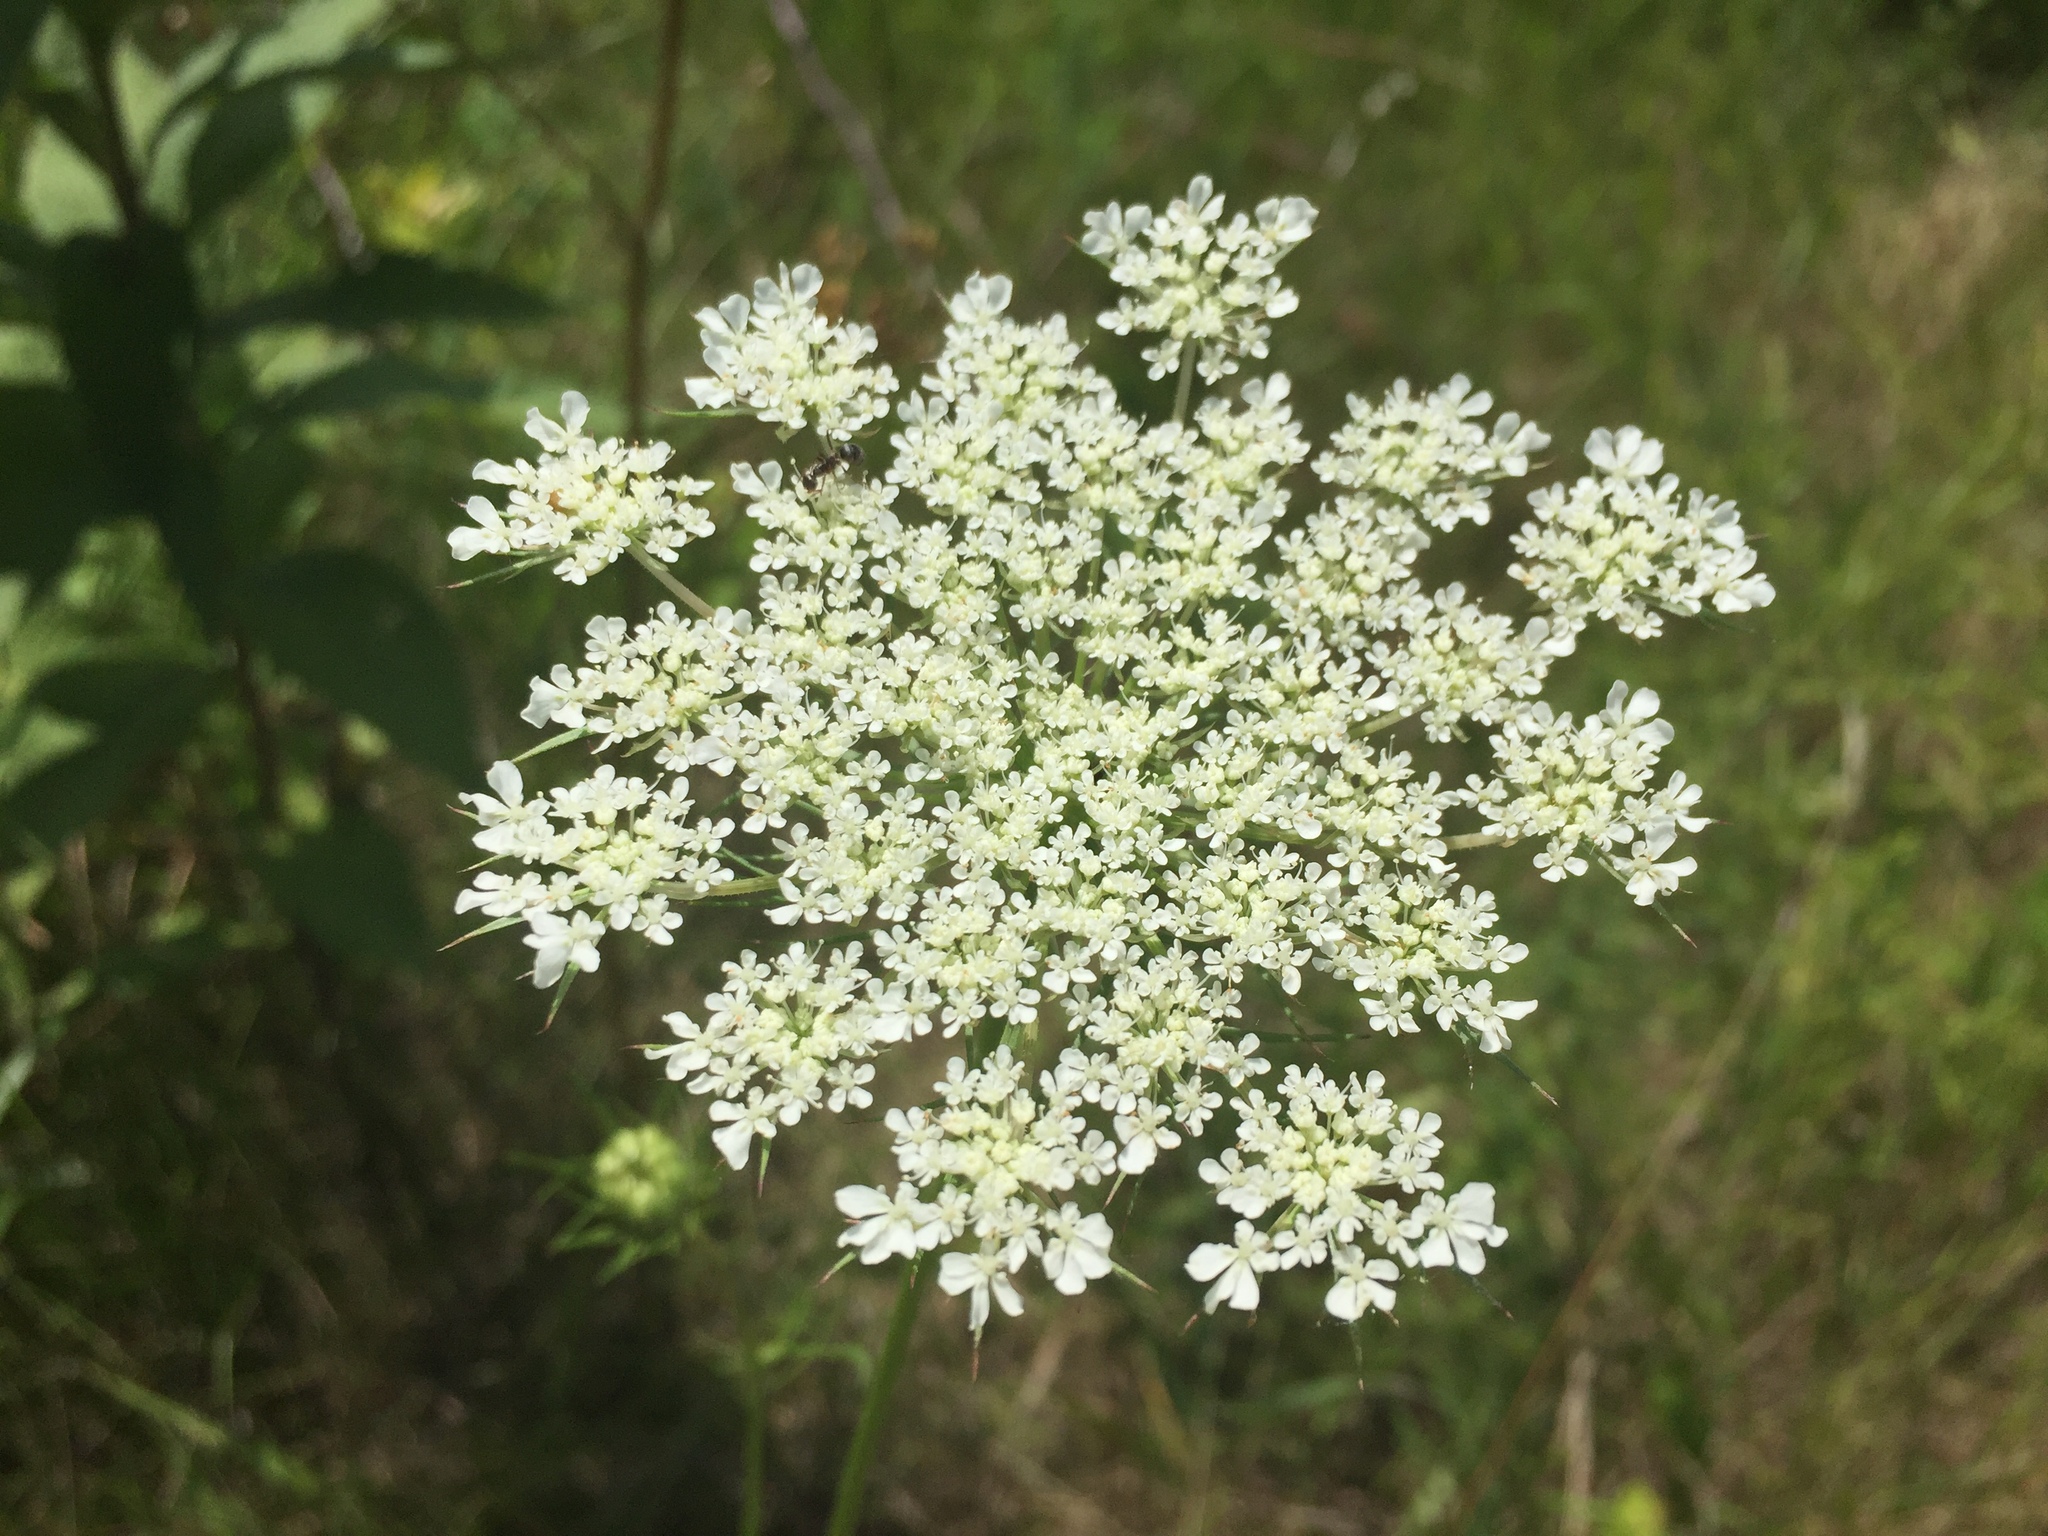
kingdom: Plantae
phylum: Tracheophyta
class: Magnoliopsida
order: Apiales
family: Apiaceae
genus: Daucus
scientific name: Daucus carota
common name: Wild carrot
